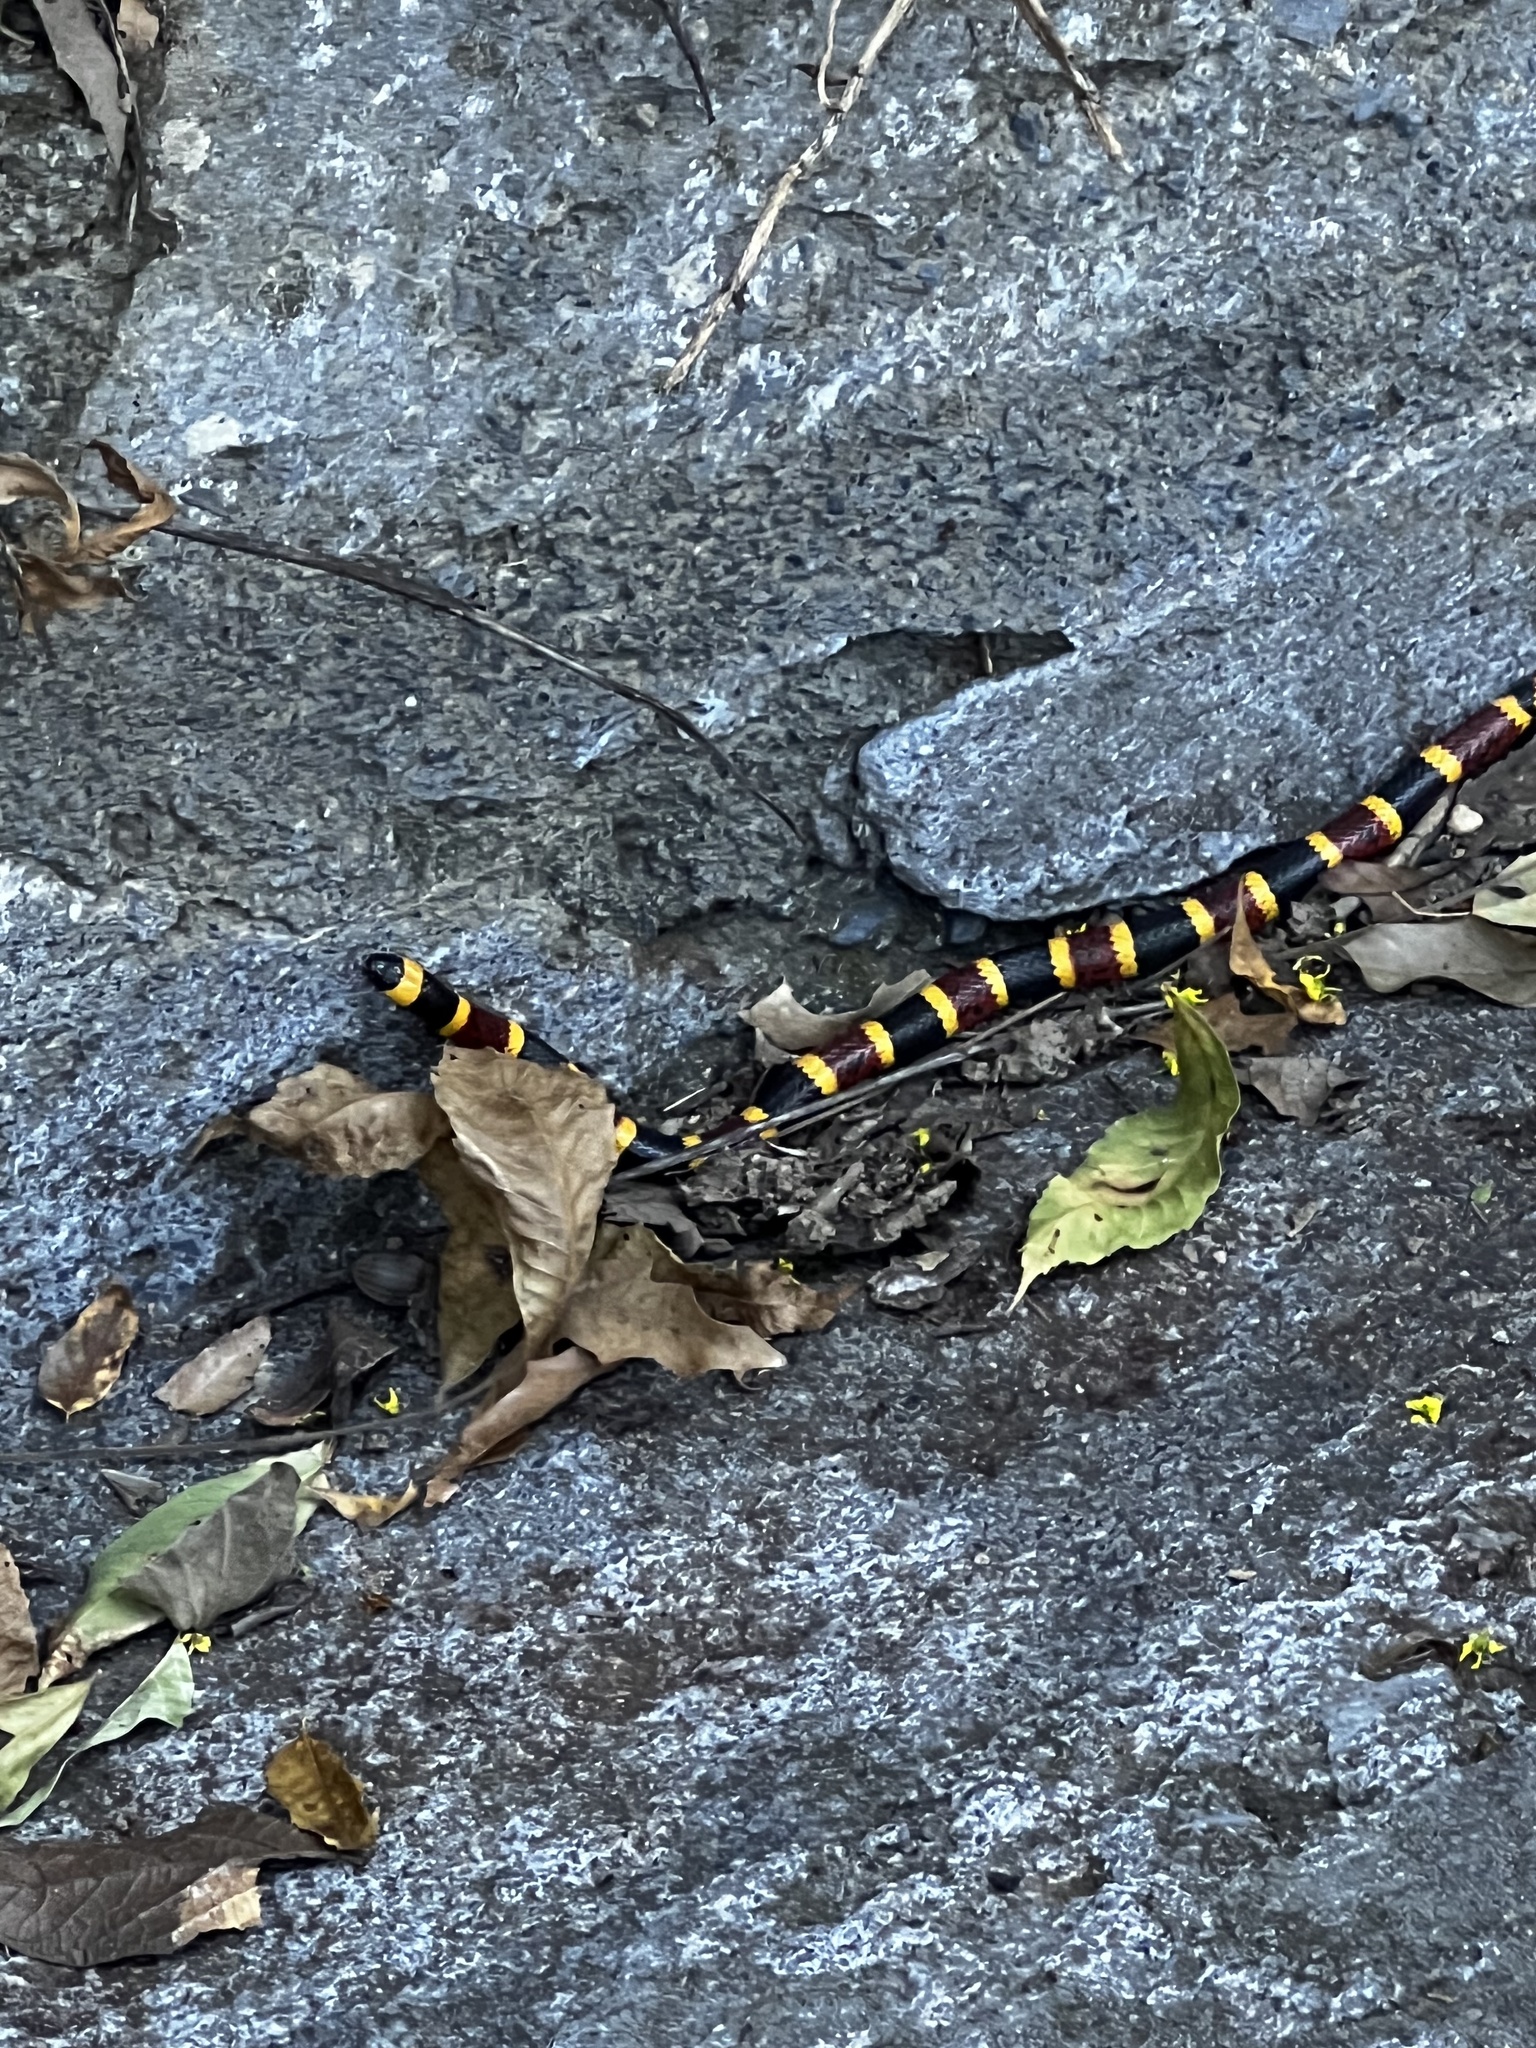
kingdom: Animalia
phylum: Chordata
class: Squamata
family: Elapidae
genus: Micrurus
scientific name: Micrurus tener
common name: Texas coral snake
